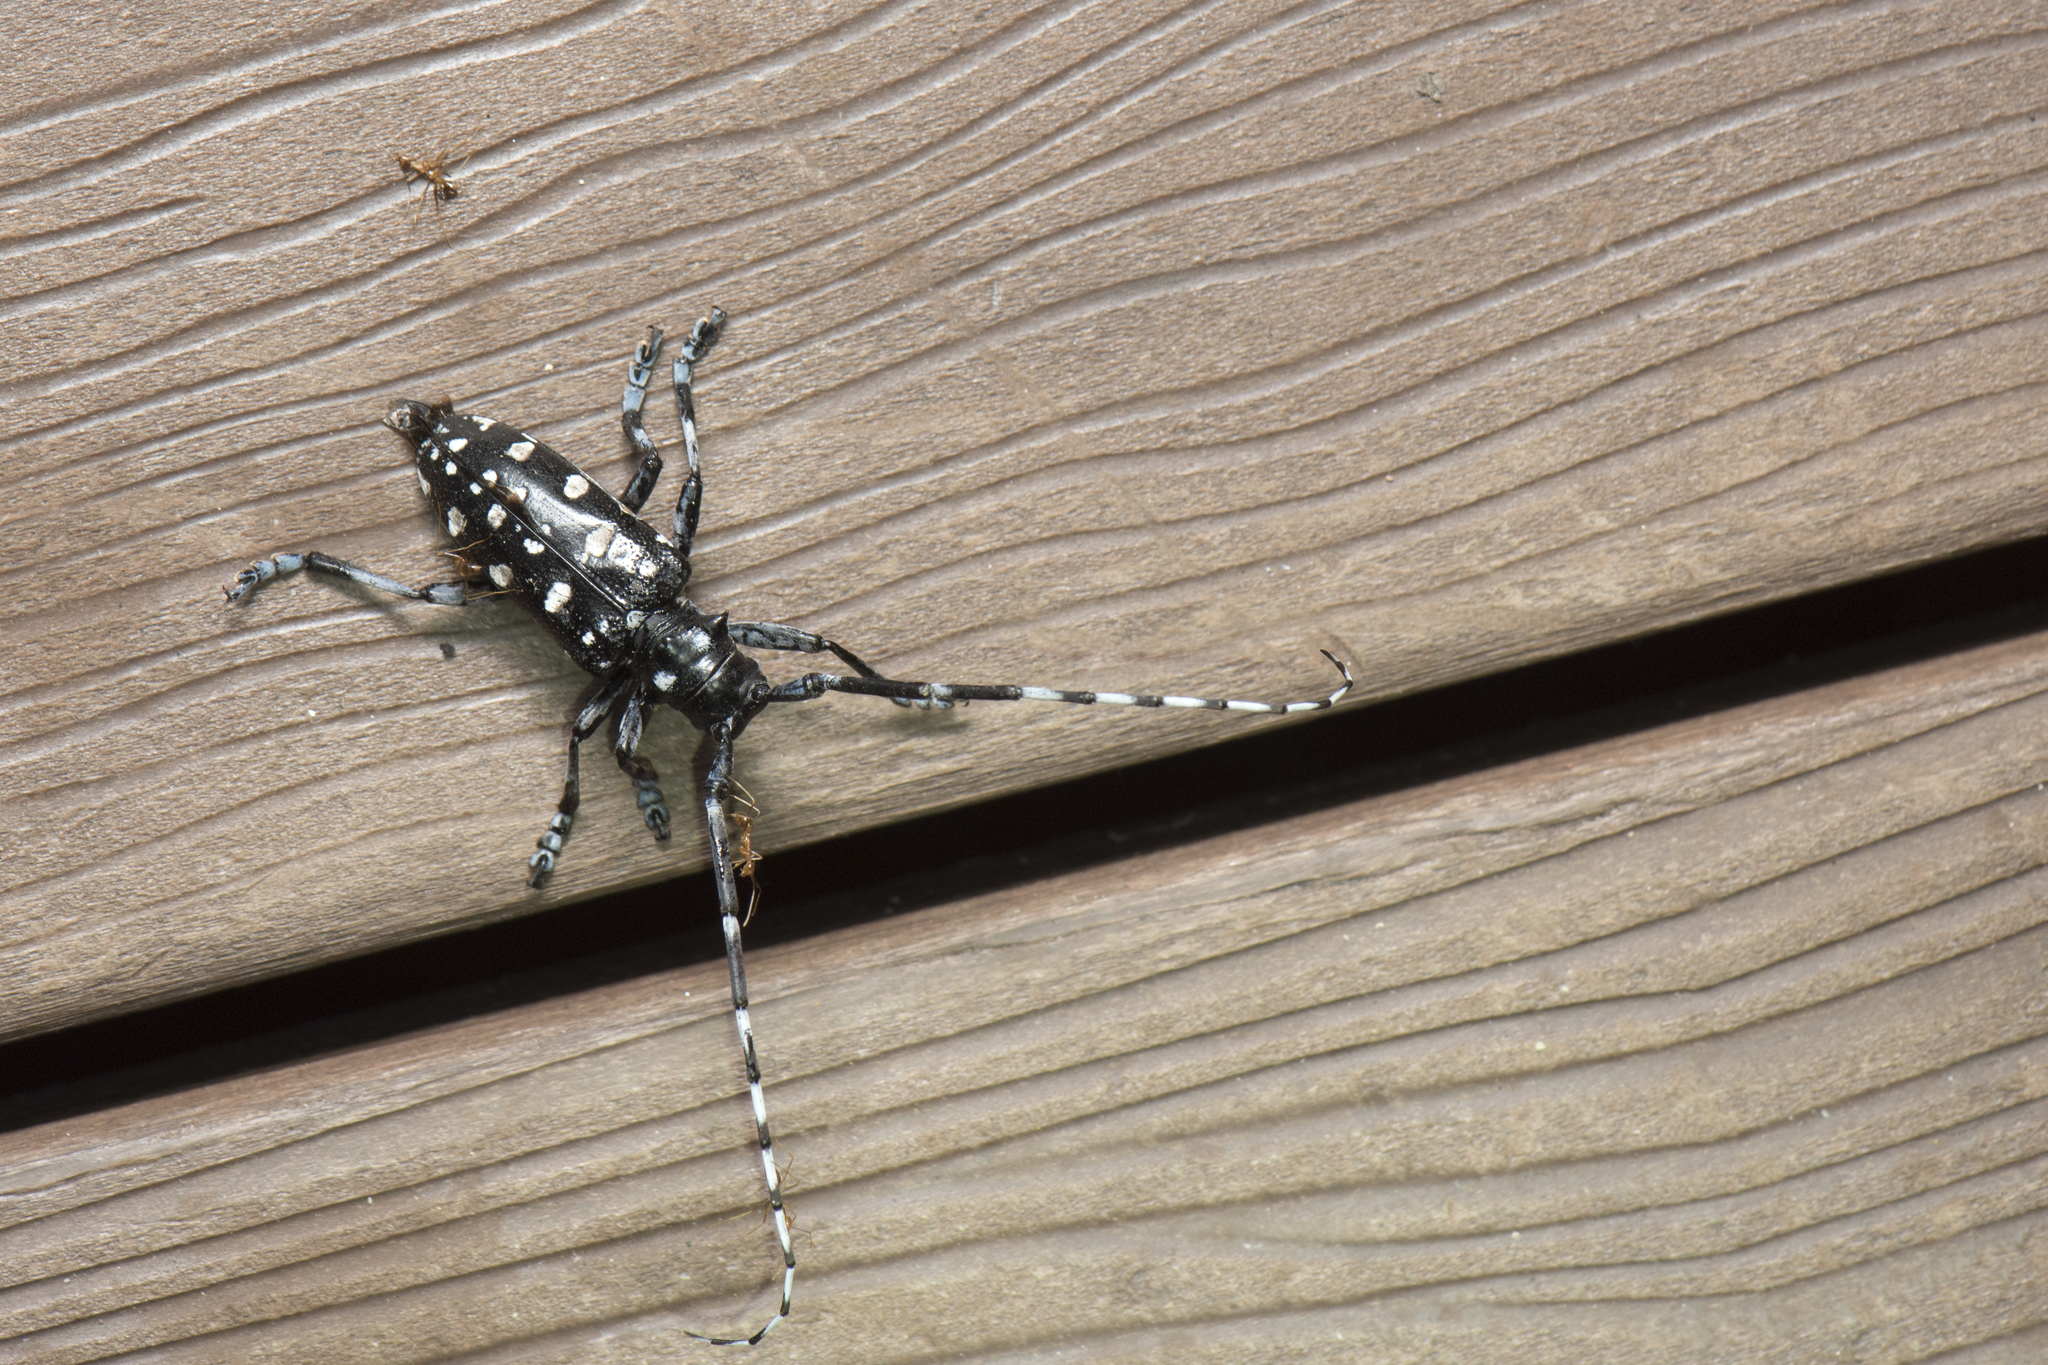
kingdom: Animalia
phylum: Arthropoda
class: Insecta
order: Coleoptera
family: Cerambycidae
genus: Anoplophora
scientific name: Anoplophora macularia
